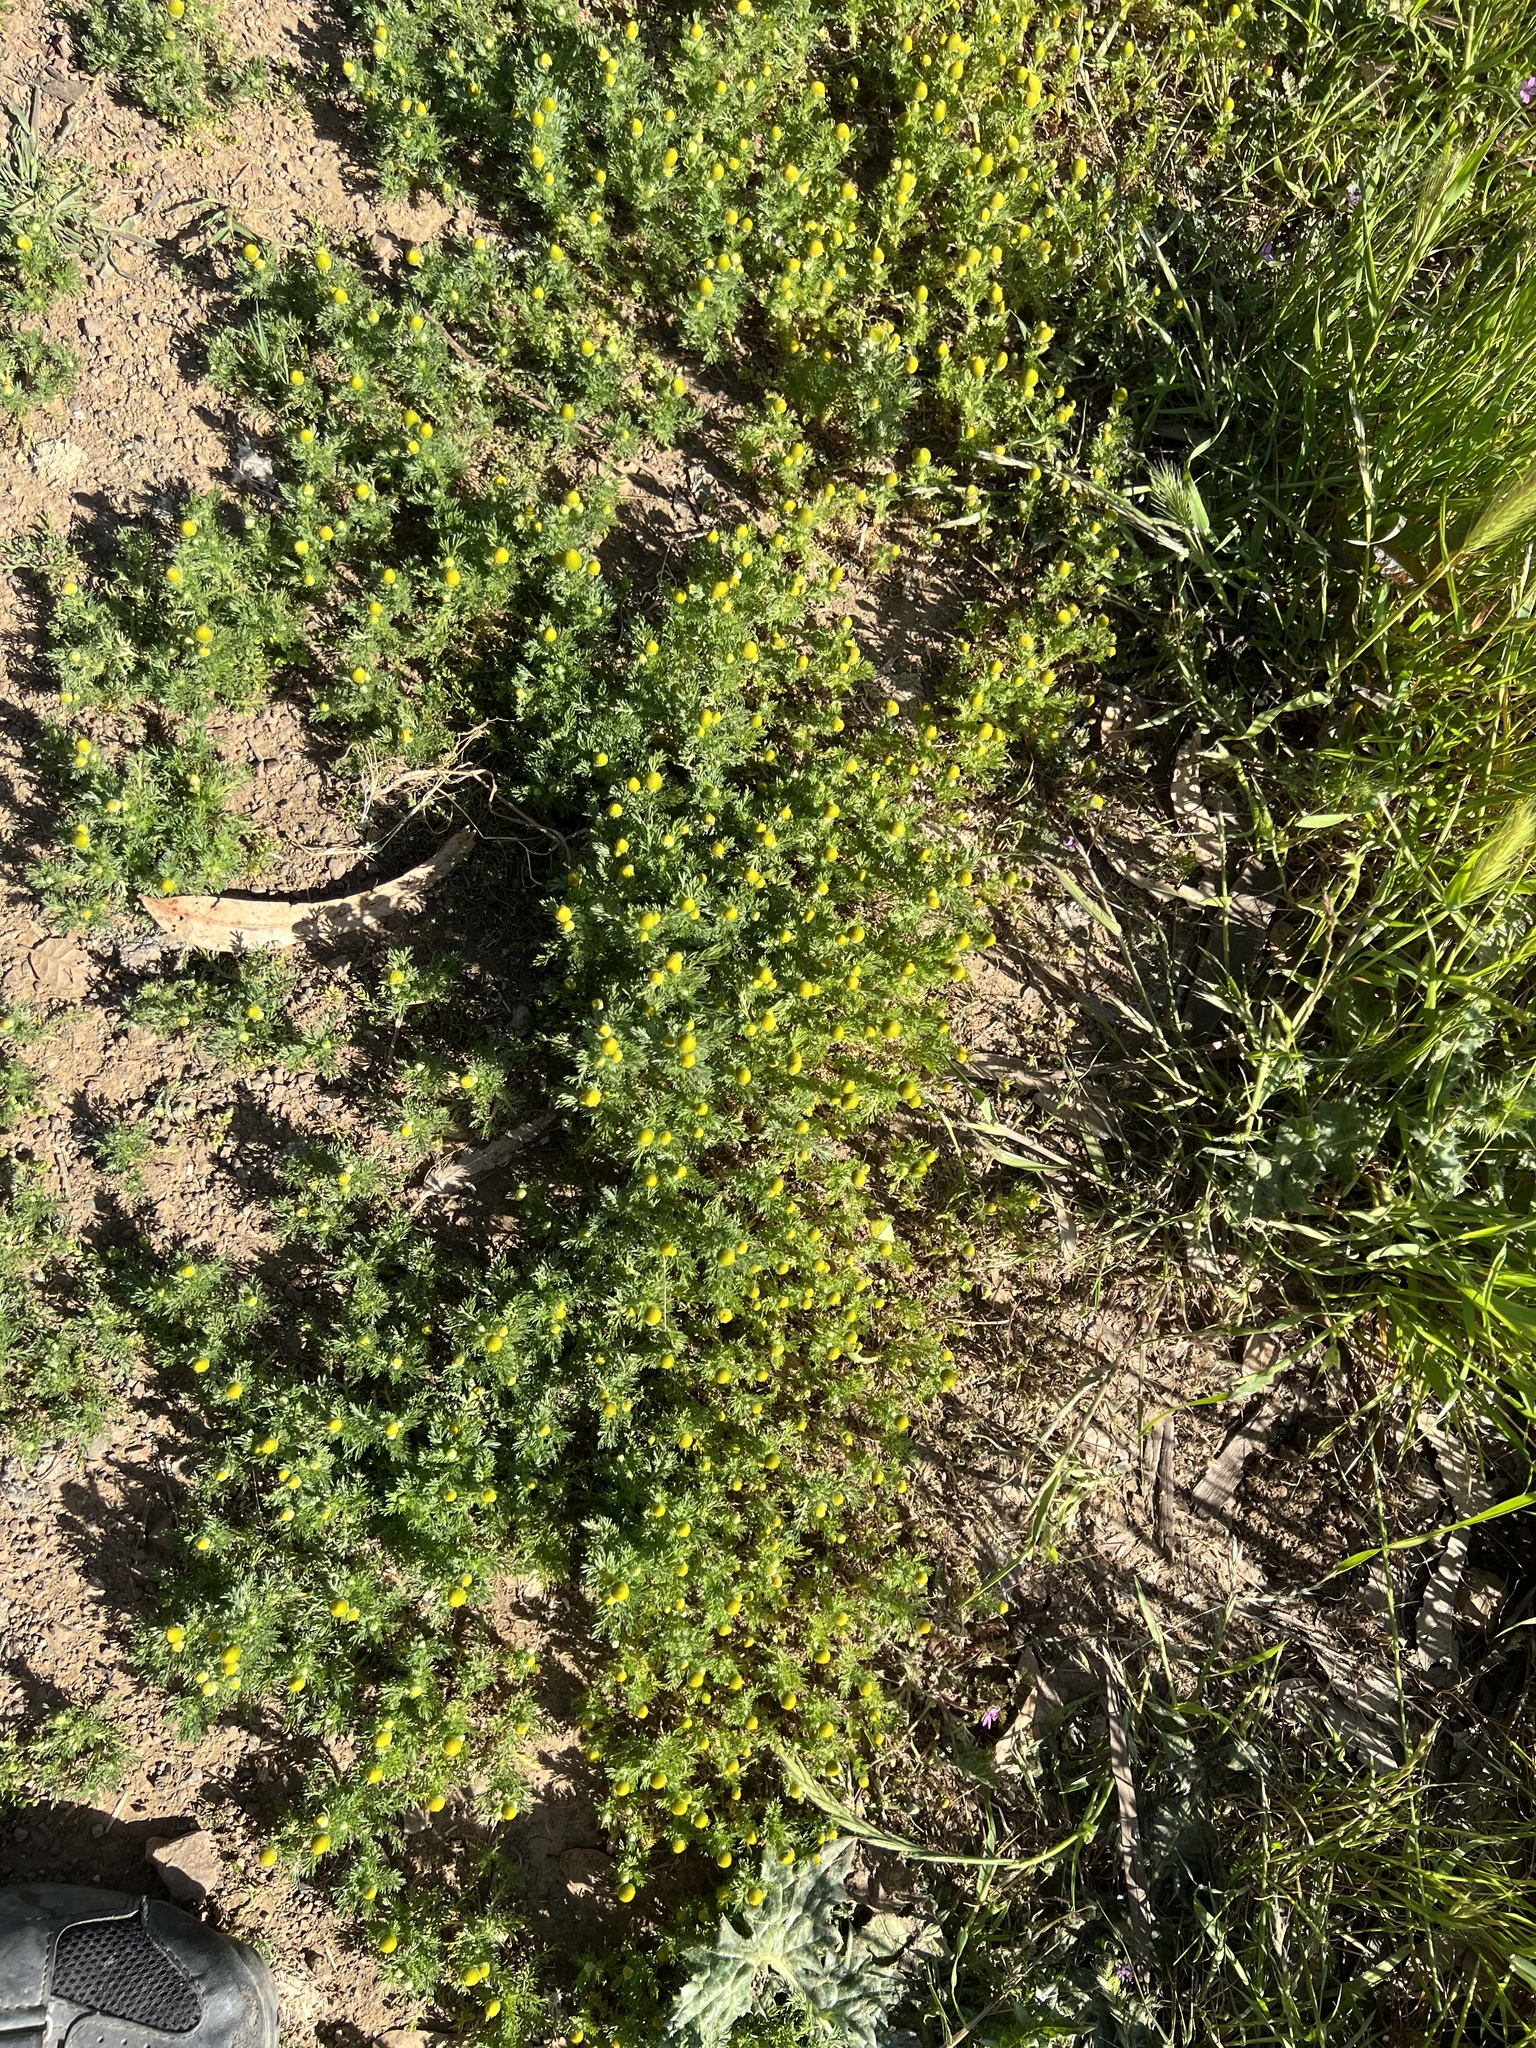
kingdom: Plantae
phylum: Tracheophyta
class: Magnoliopsida
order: Asterales
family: Asteraceae
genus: Matricaria
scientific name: Matricaria discoidea
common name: Disc mayweed
